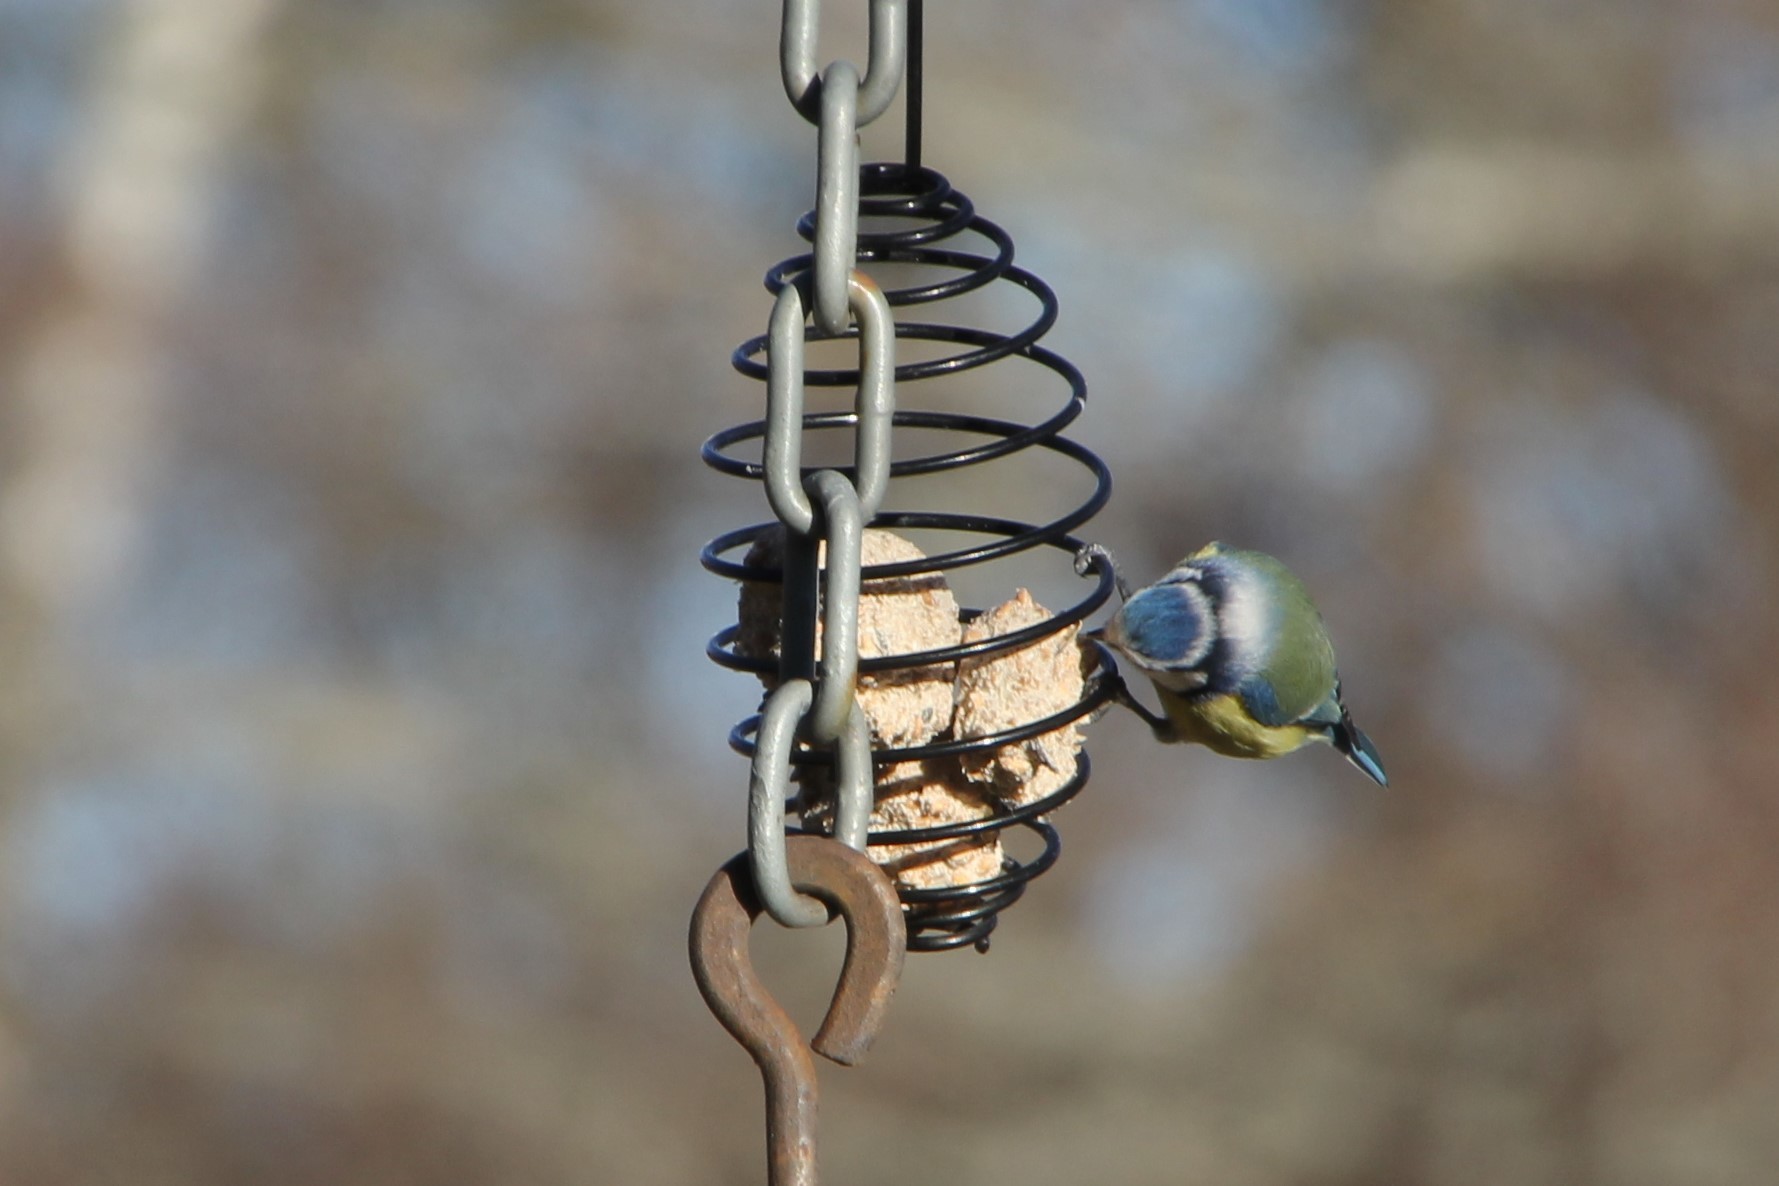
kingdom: Animalia
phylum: Chordata
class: Aves
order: Passeriformes
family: Paridae
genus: Cyanistes
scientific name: Cyanistes caeruleus
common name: Eurasian blue tit
